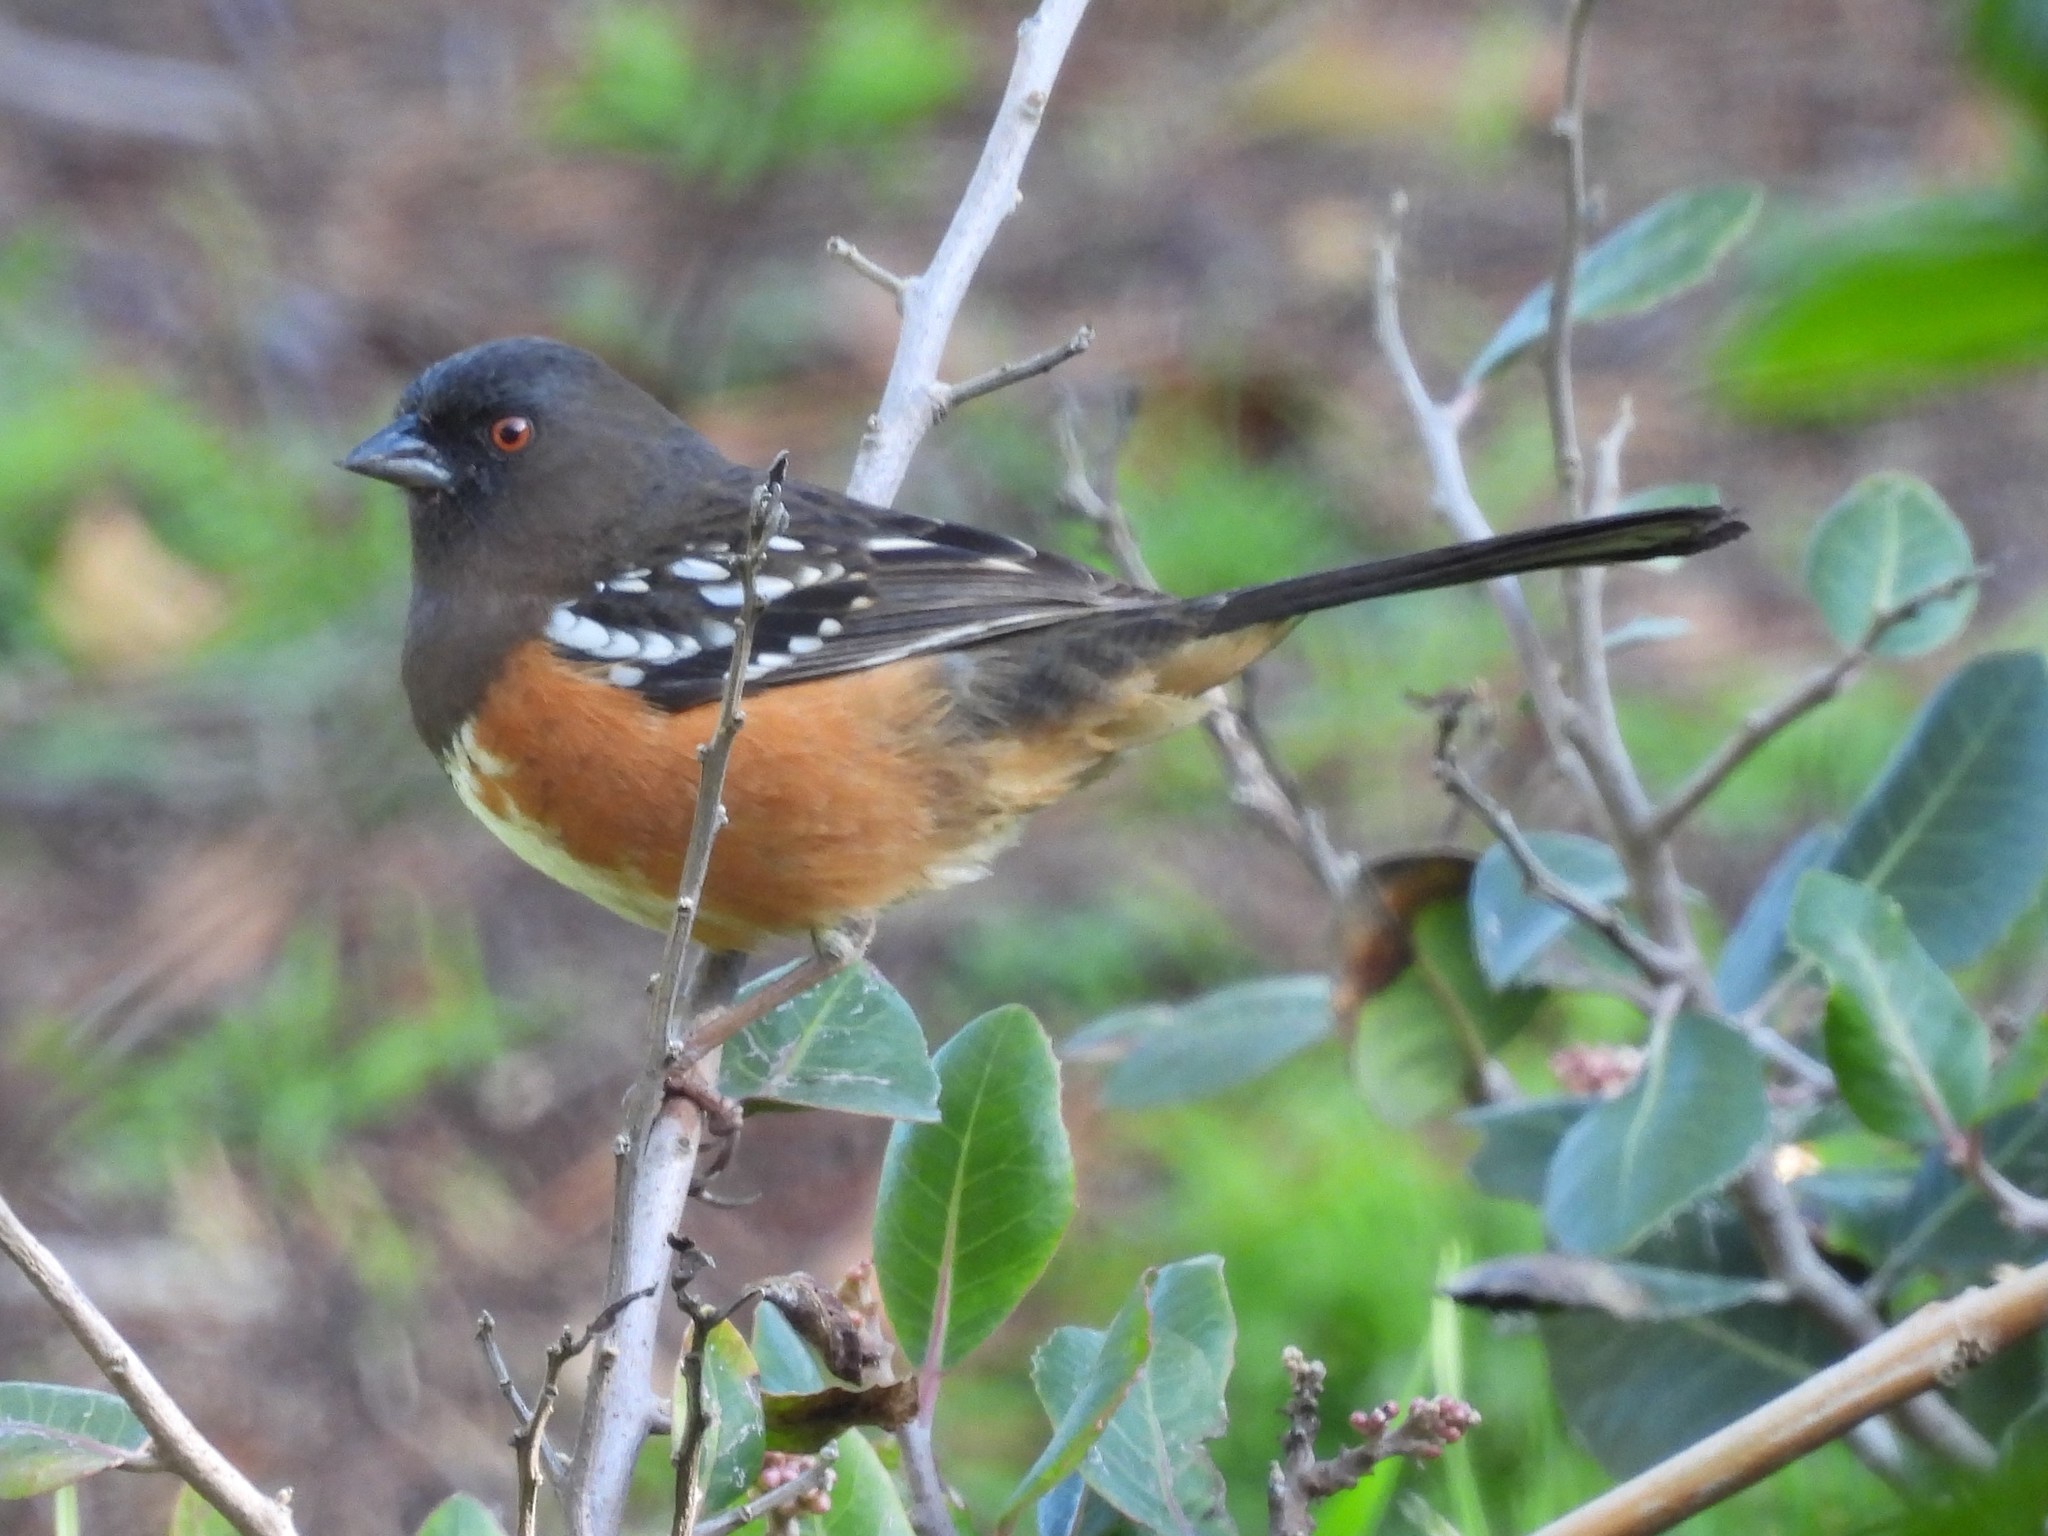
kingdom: Animalia
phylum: Chordata
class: Aves
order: Passeriformes
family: Passerellidae
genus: Pipilo
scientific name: Pipilo maculatus
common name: Spotted towhee
